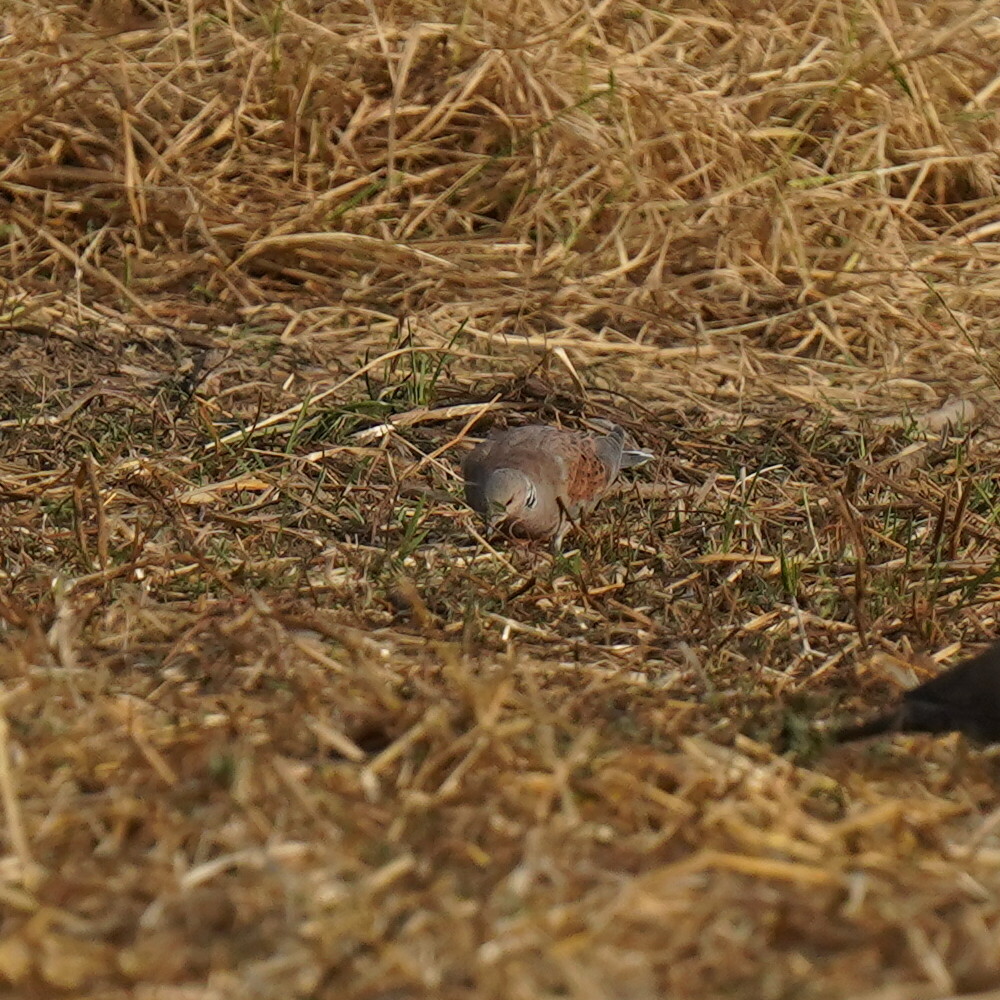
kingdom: Animalia
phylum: Chordata
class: Aves
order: Columbiformes
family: Columbidae
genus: Streptopelia
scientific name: Streptopelia turtur
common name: European turtle dove
